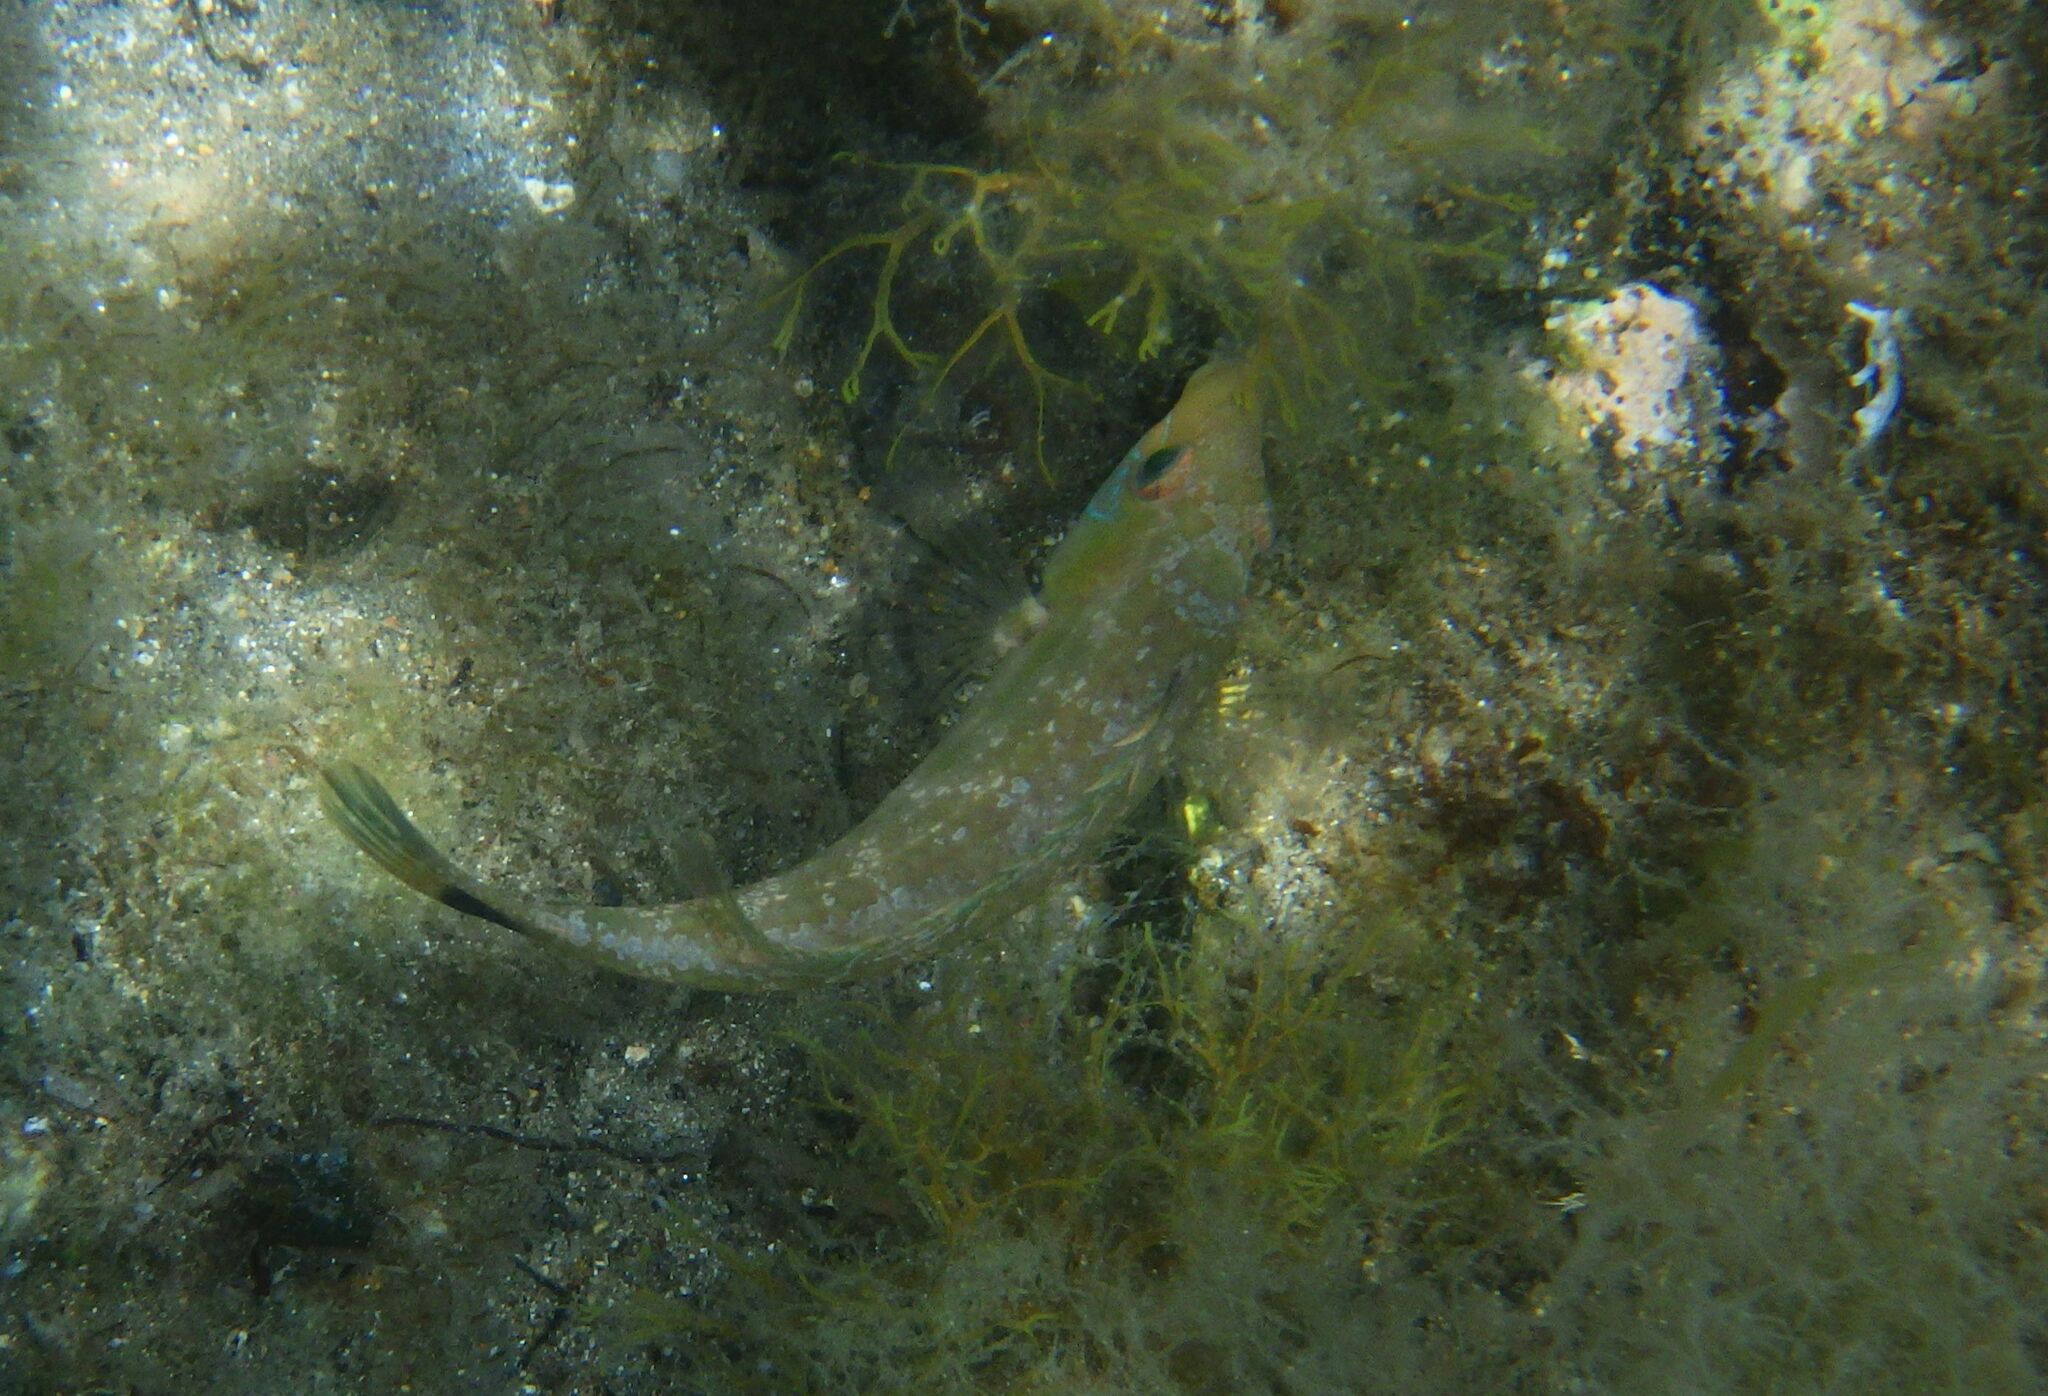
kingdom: Animalia
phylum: Chordata
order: Perciformes
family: Labridae
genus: Symphodus
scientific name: Symphodus cinereus
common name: Grey wrasse
